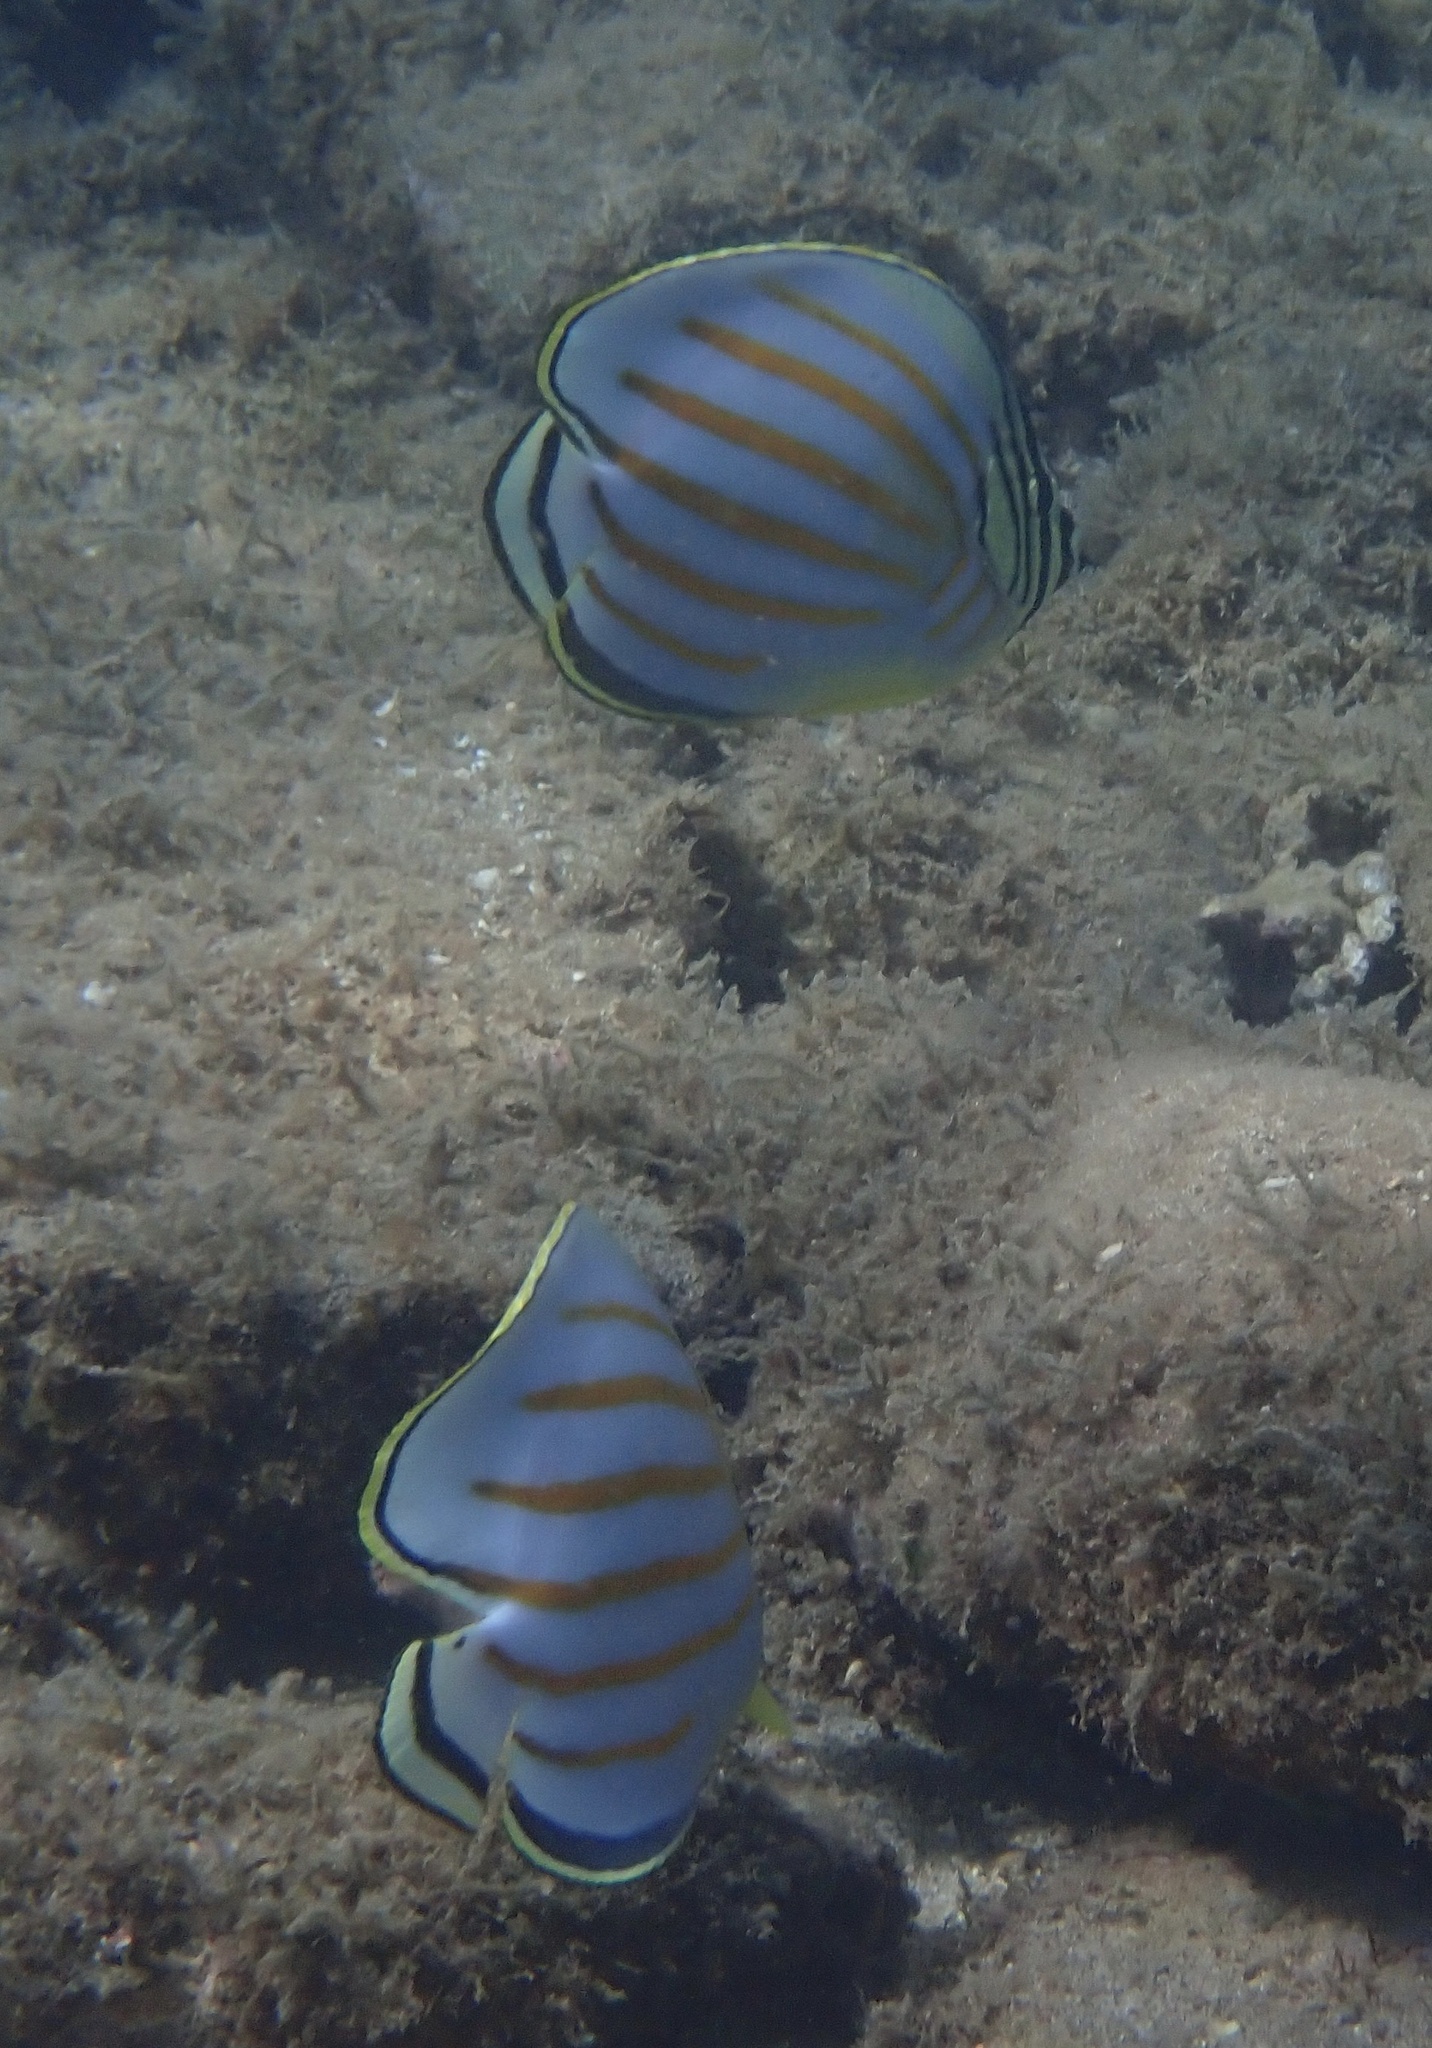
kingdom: Animalia
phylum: Chordata
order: Perciformes
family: Chaetodontidae
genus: Chaetodon
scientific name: Chaetodon ornatissimus
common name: Ornate butterflyfish
